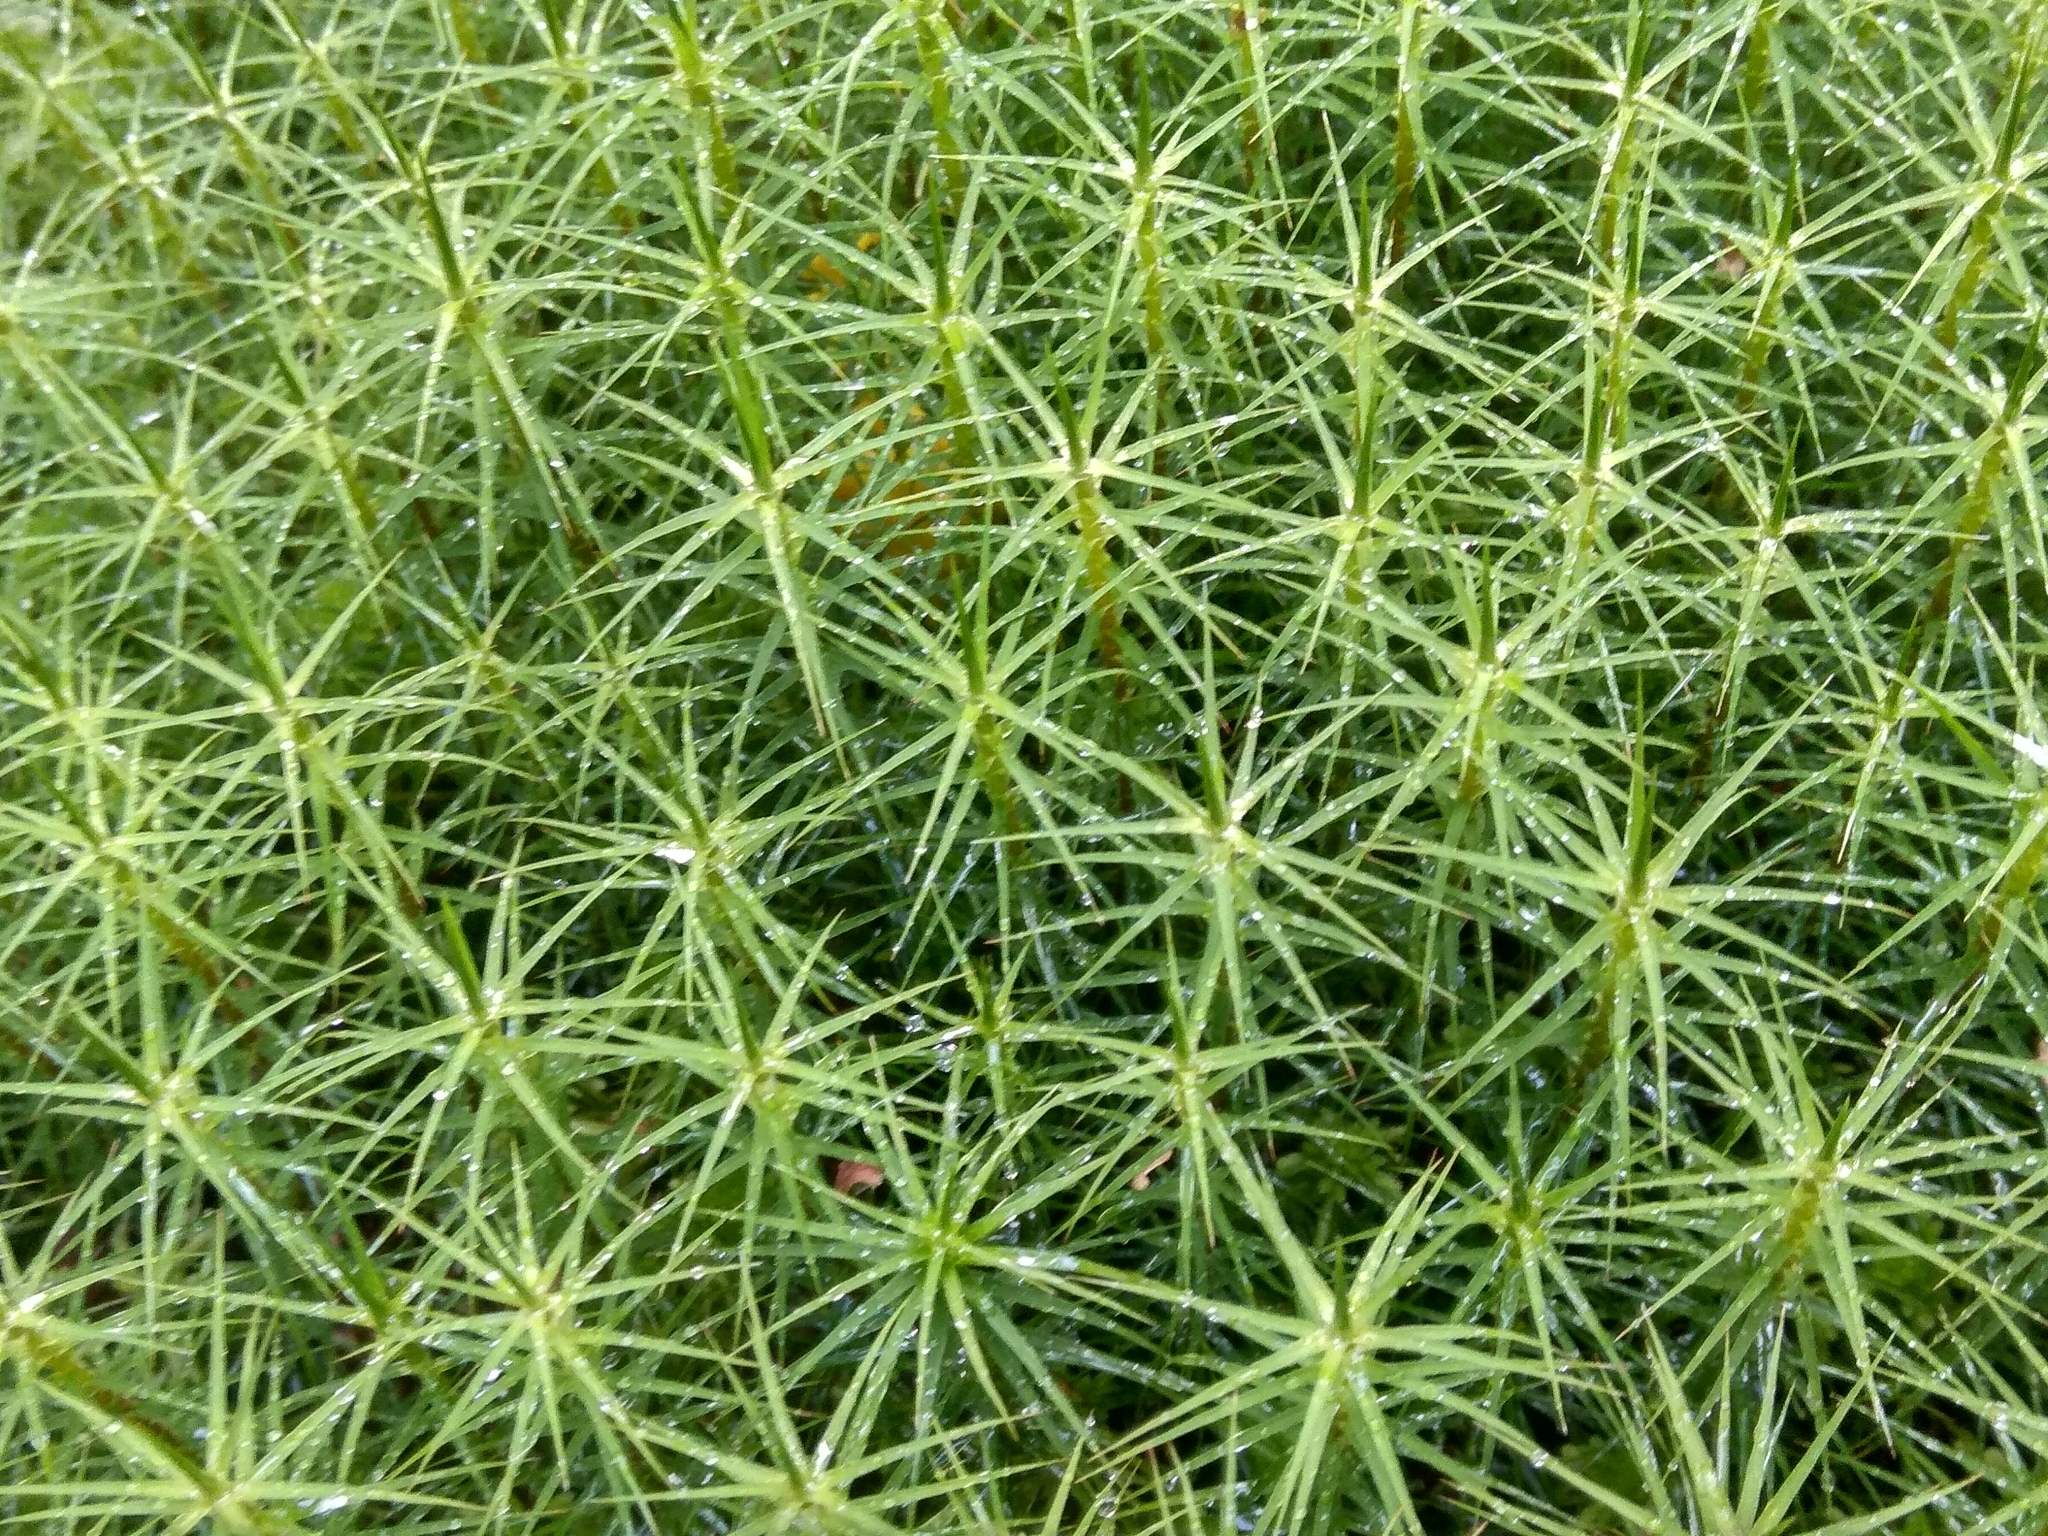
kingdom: Plantae
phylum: Bryophyta
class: Polytrichopsida
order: Polytrichales
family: Polytrichaceae
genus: Polytrichum
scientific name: Polytrichum commune
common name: Common haircap
